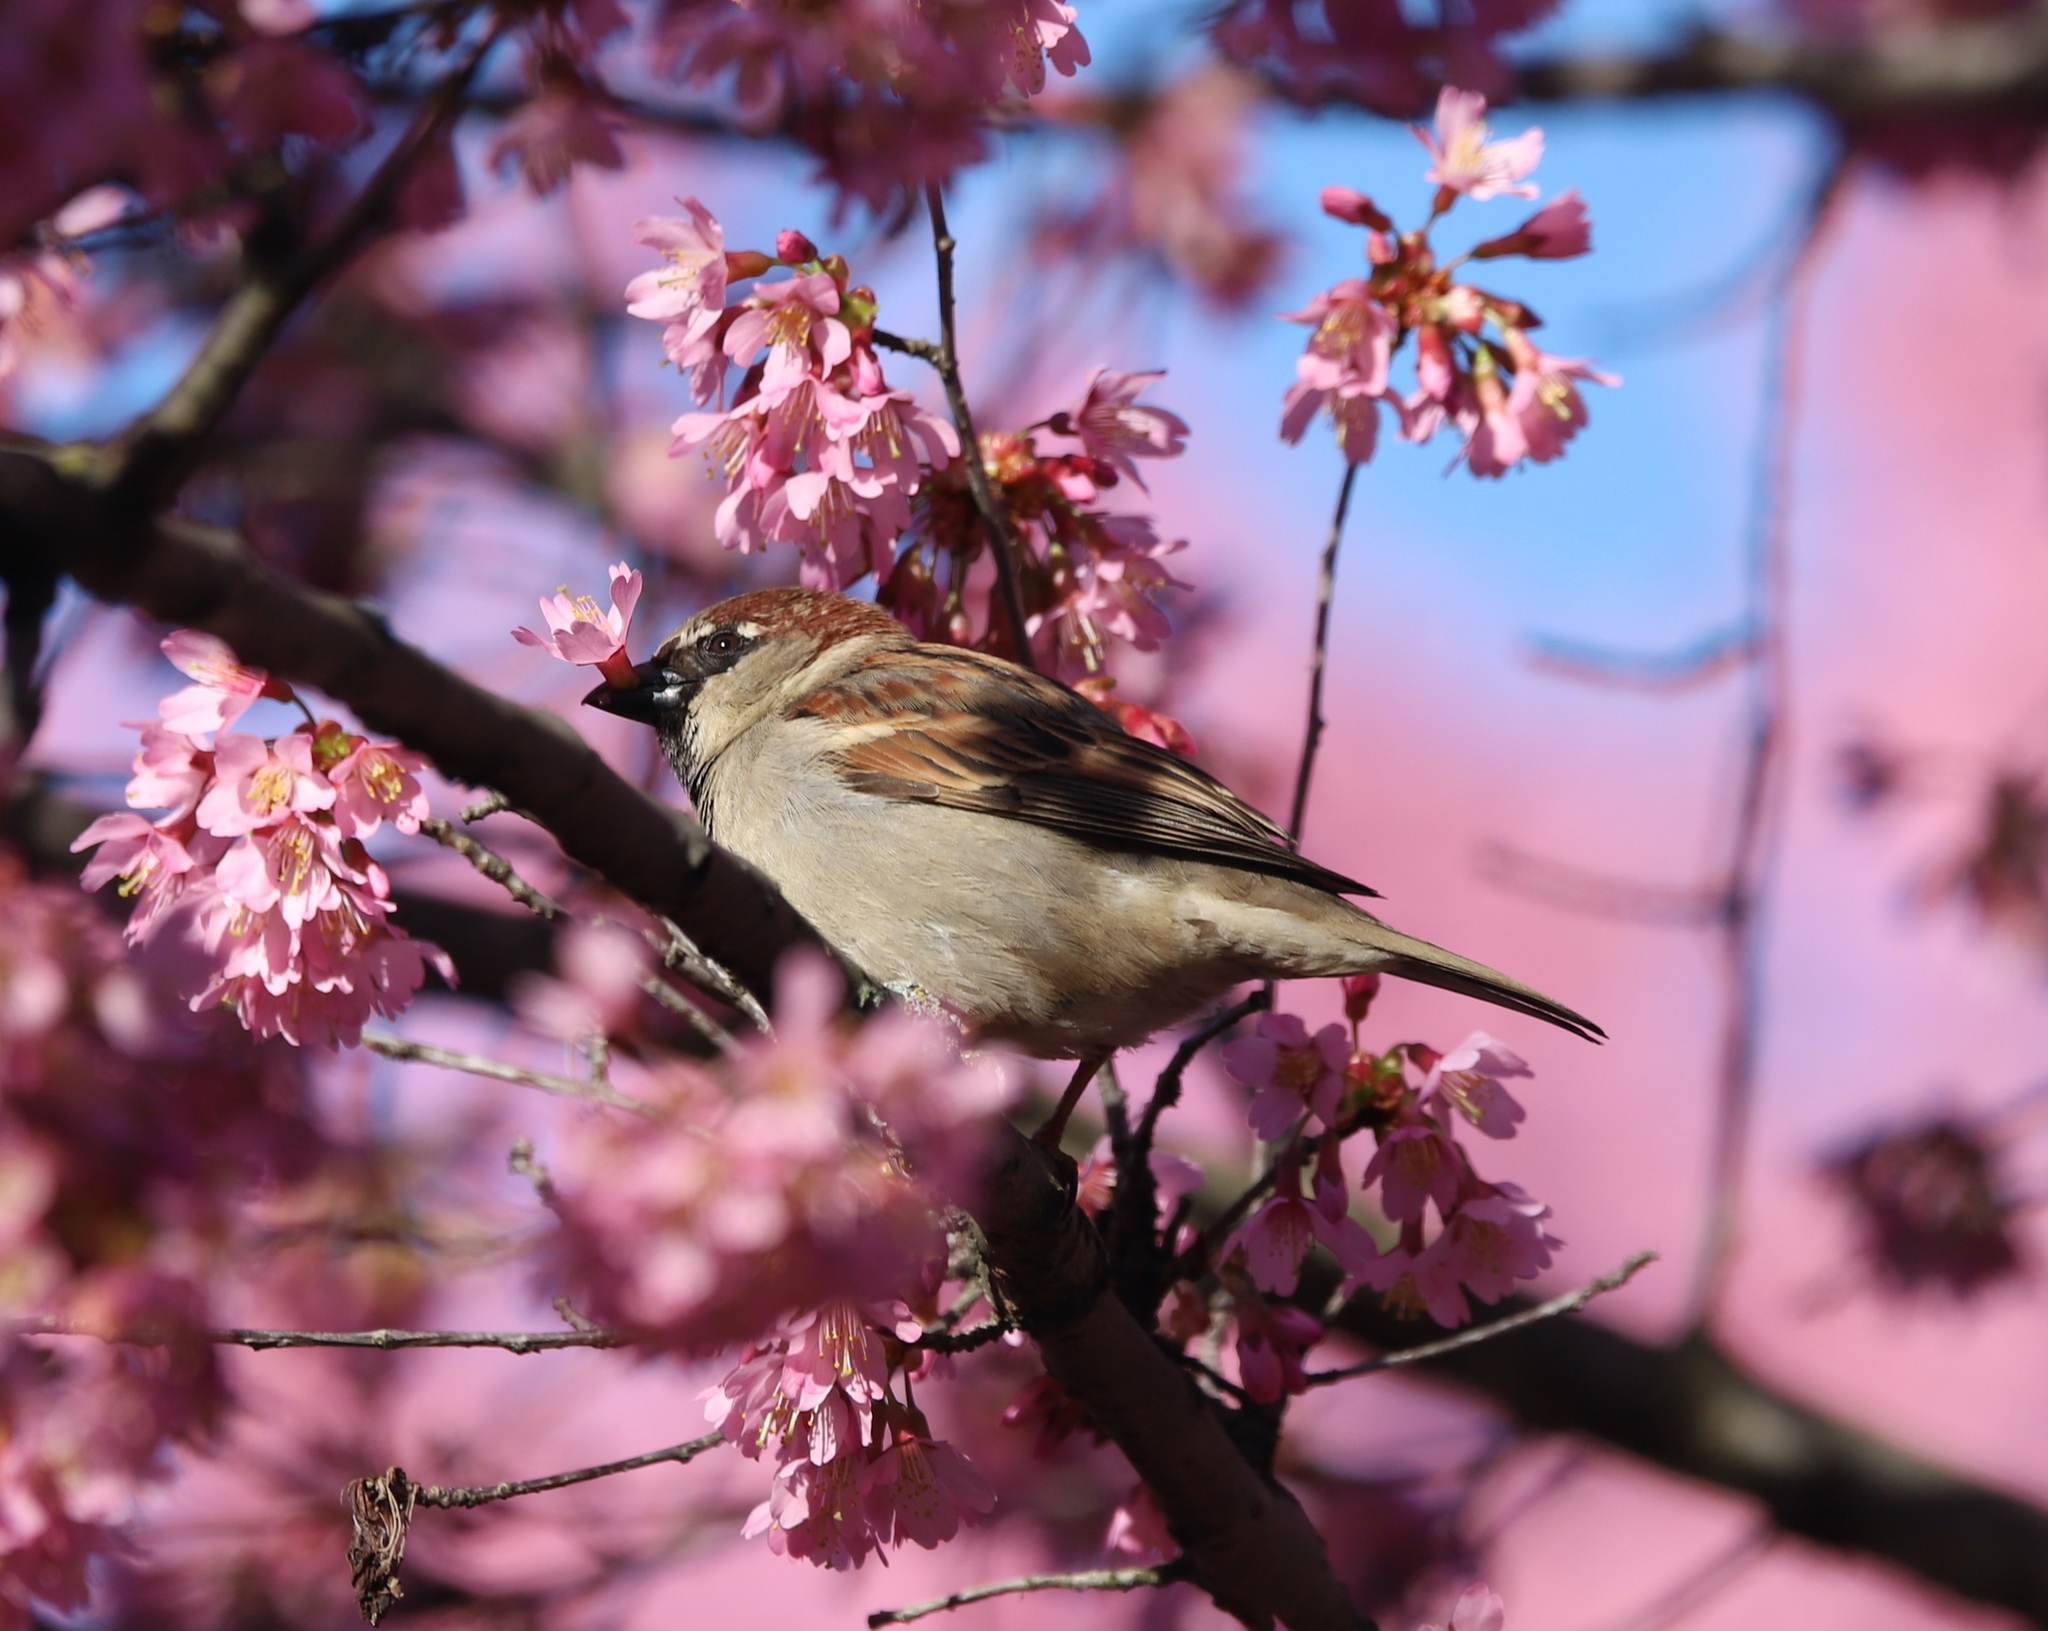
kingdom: Animalia
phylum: Chordata
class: Aves
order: Passeriformes
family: Passeridae
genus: Passer
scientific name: Passer domesticus
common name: House sparrow
